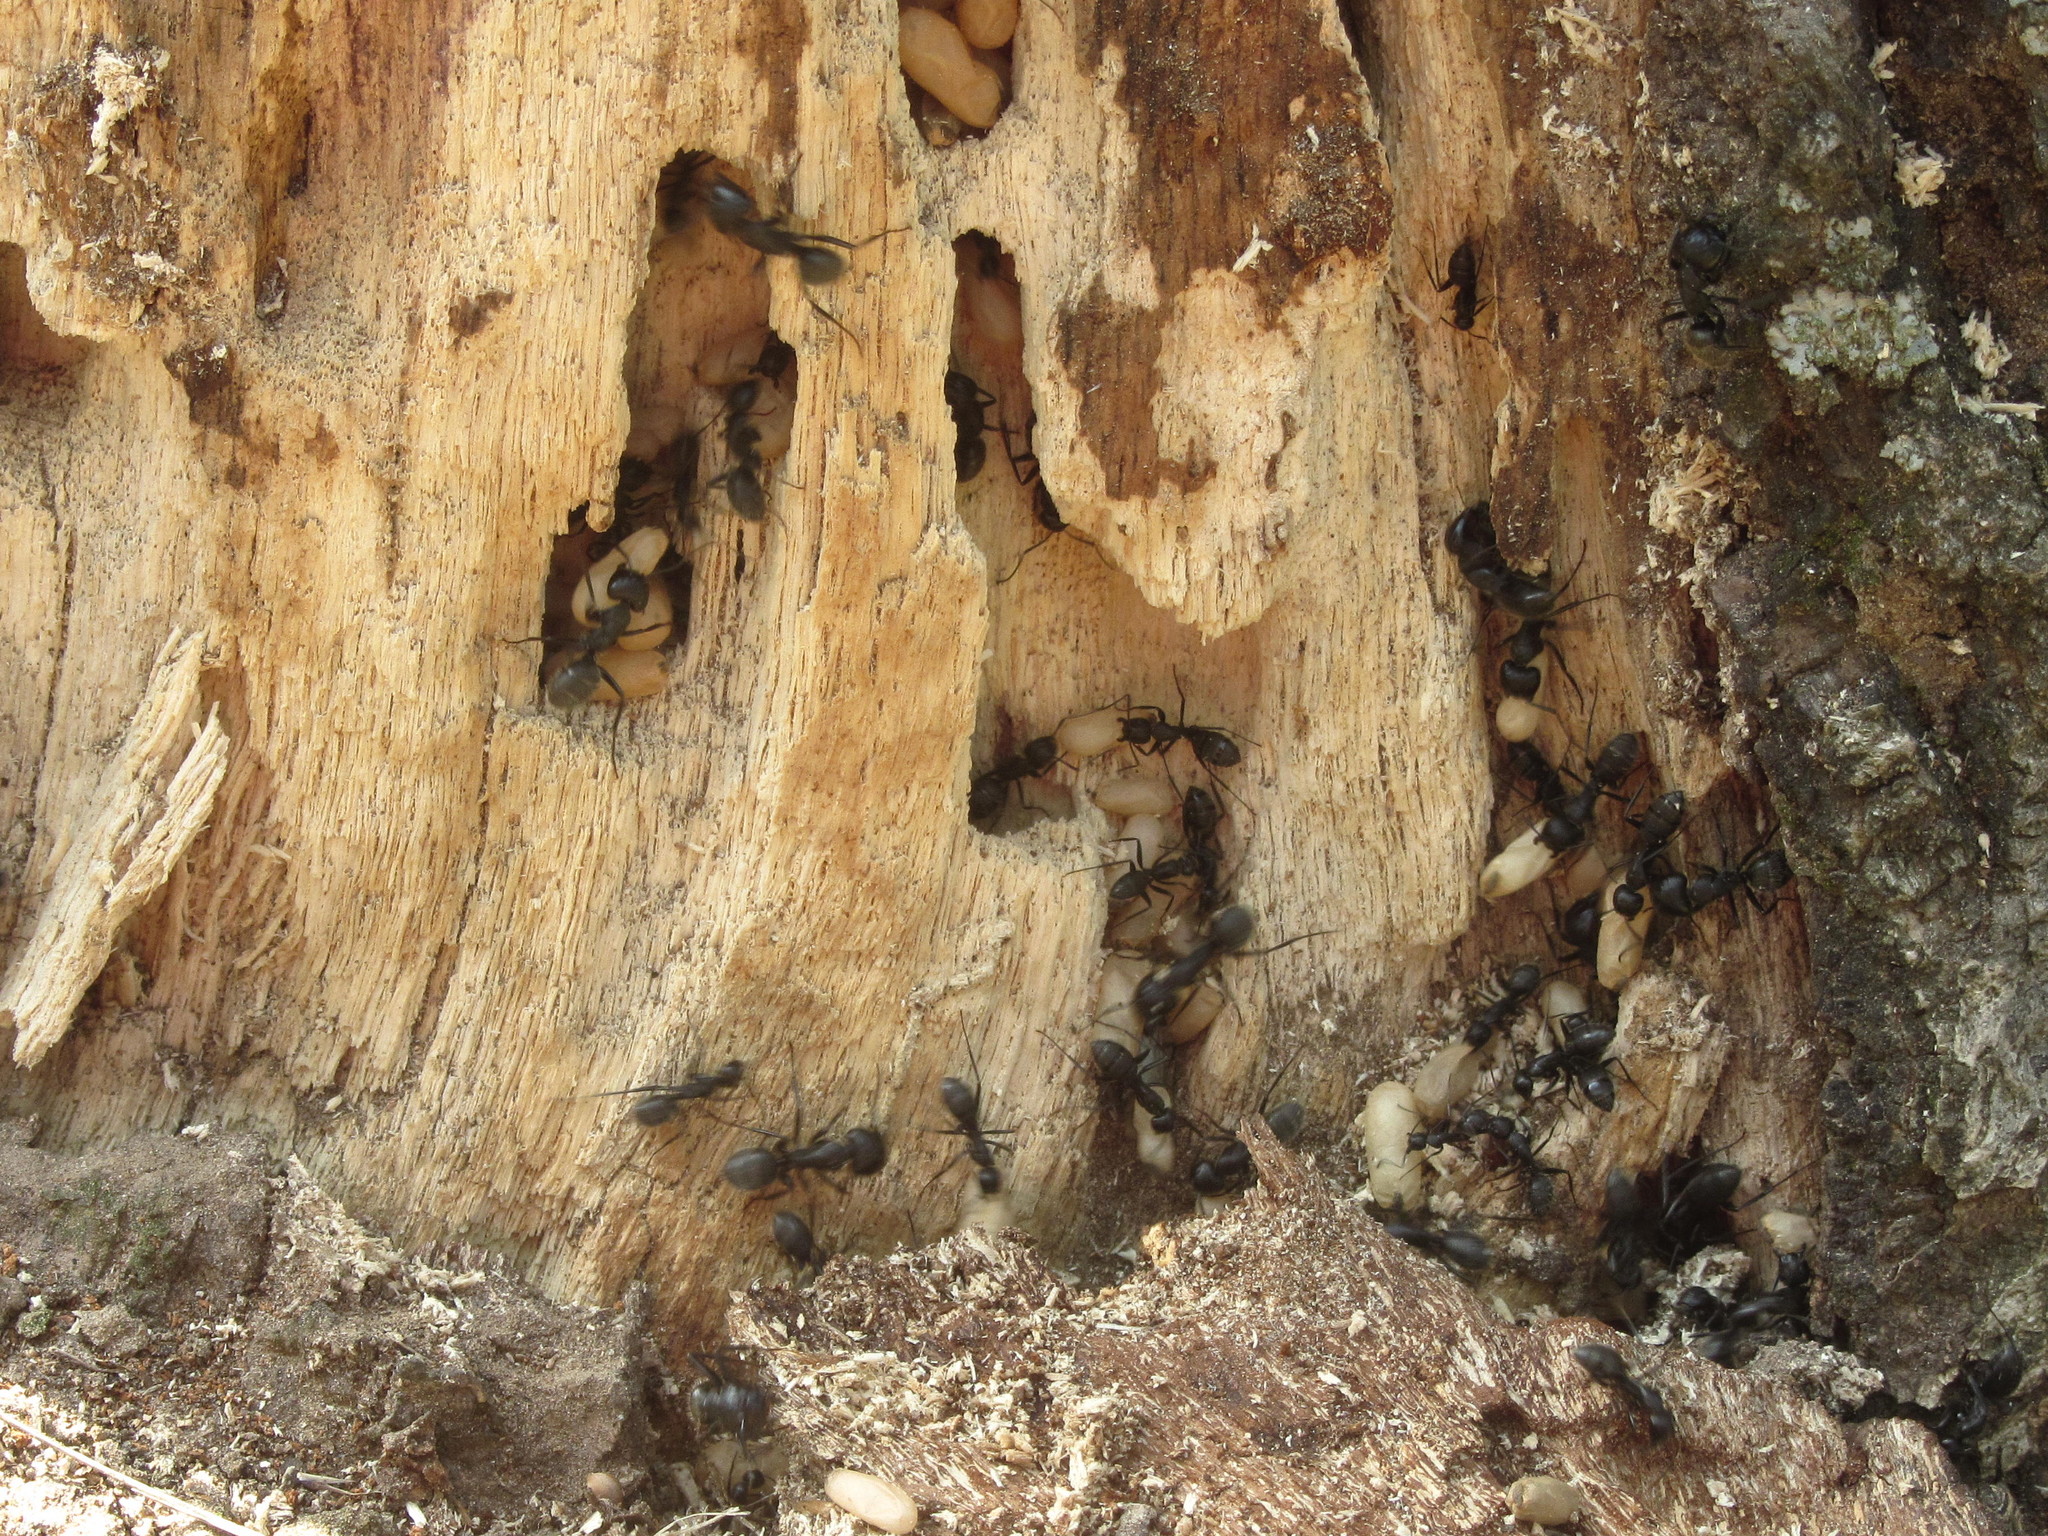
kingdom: Animalia
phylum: Arthropoda
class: Insecta
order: Hymenoptera
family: Formicidae
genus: Camponotus
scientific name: Camponotus vagus
